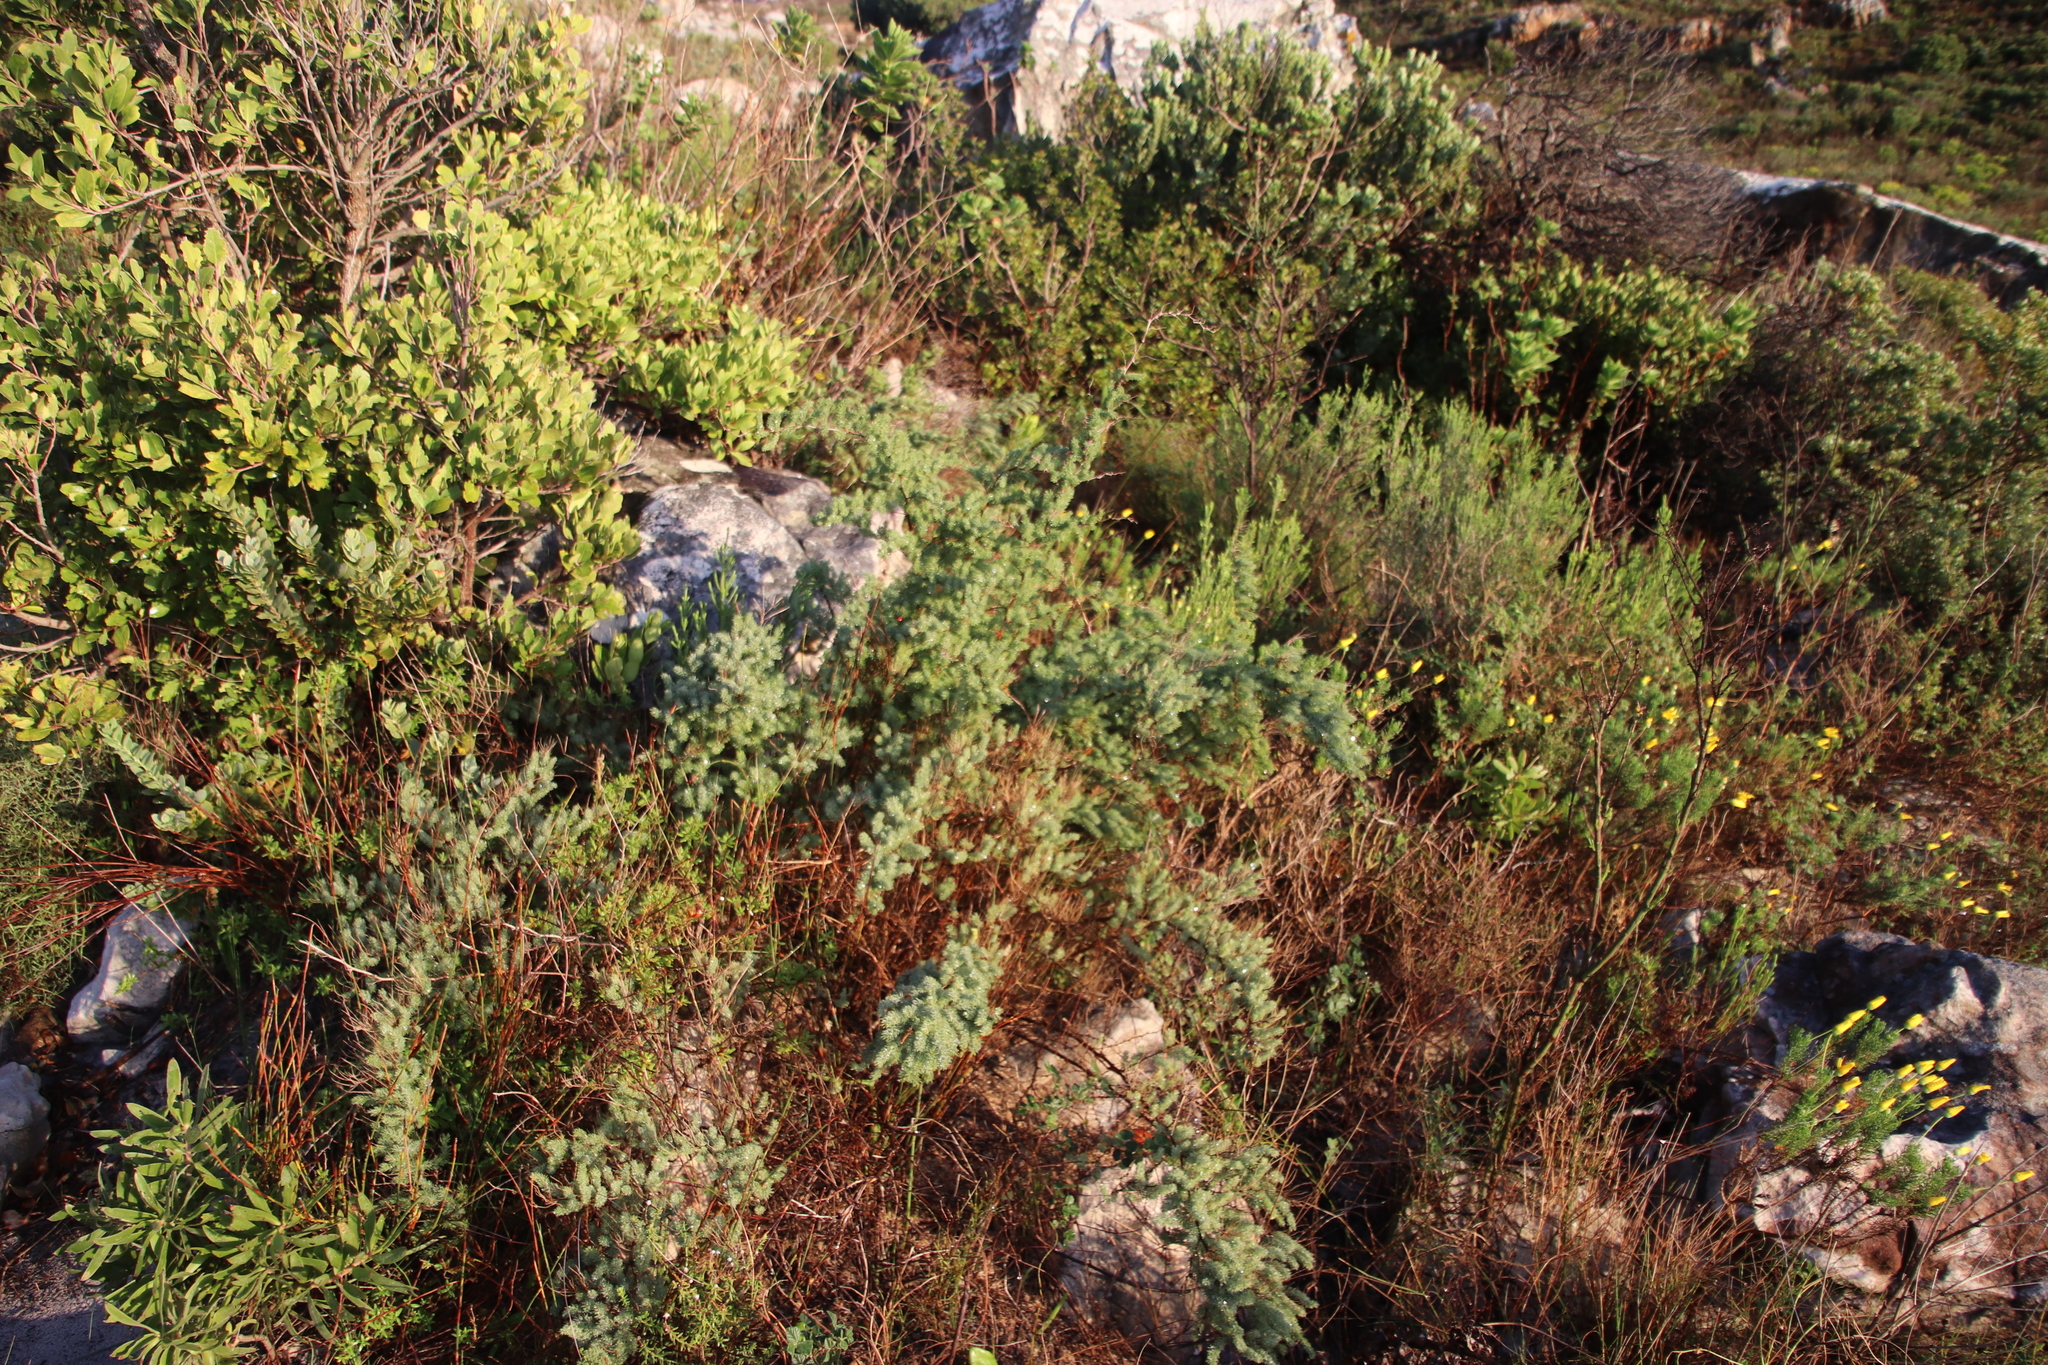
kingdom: Plantae
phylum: Tracheophyta
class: Liliopsida
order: Asparagales
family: Asparagaceae
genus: Asparagus
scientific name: Asparagus rubicundus
